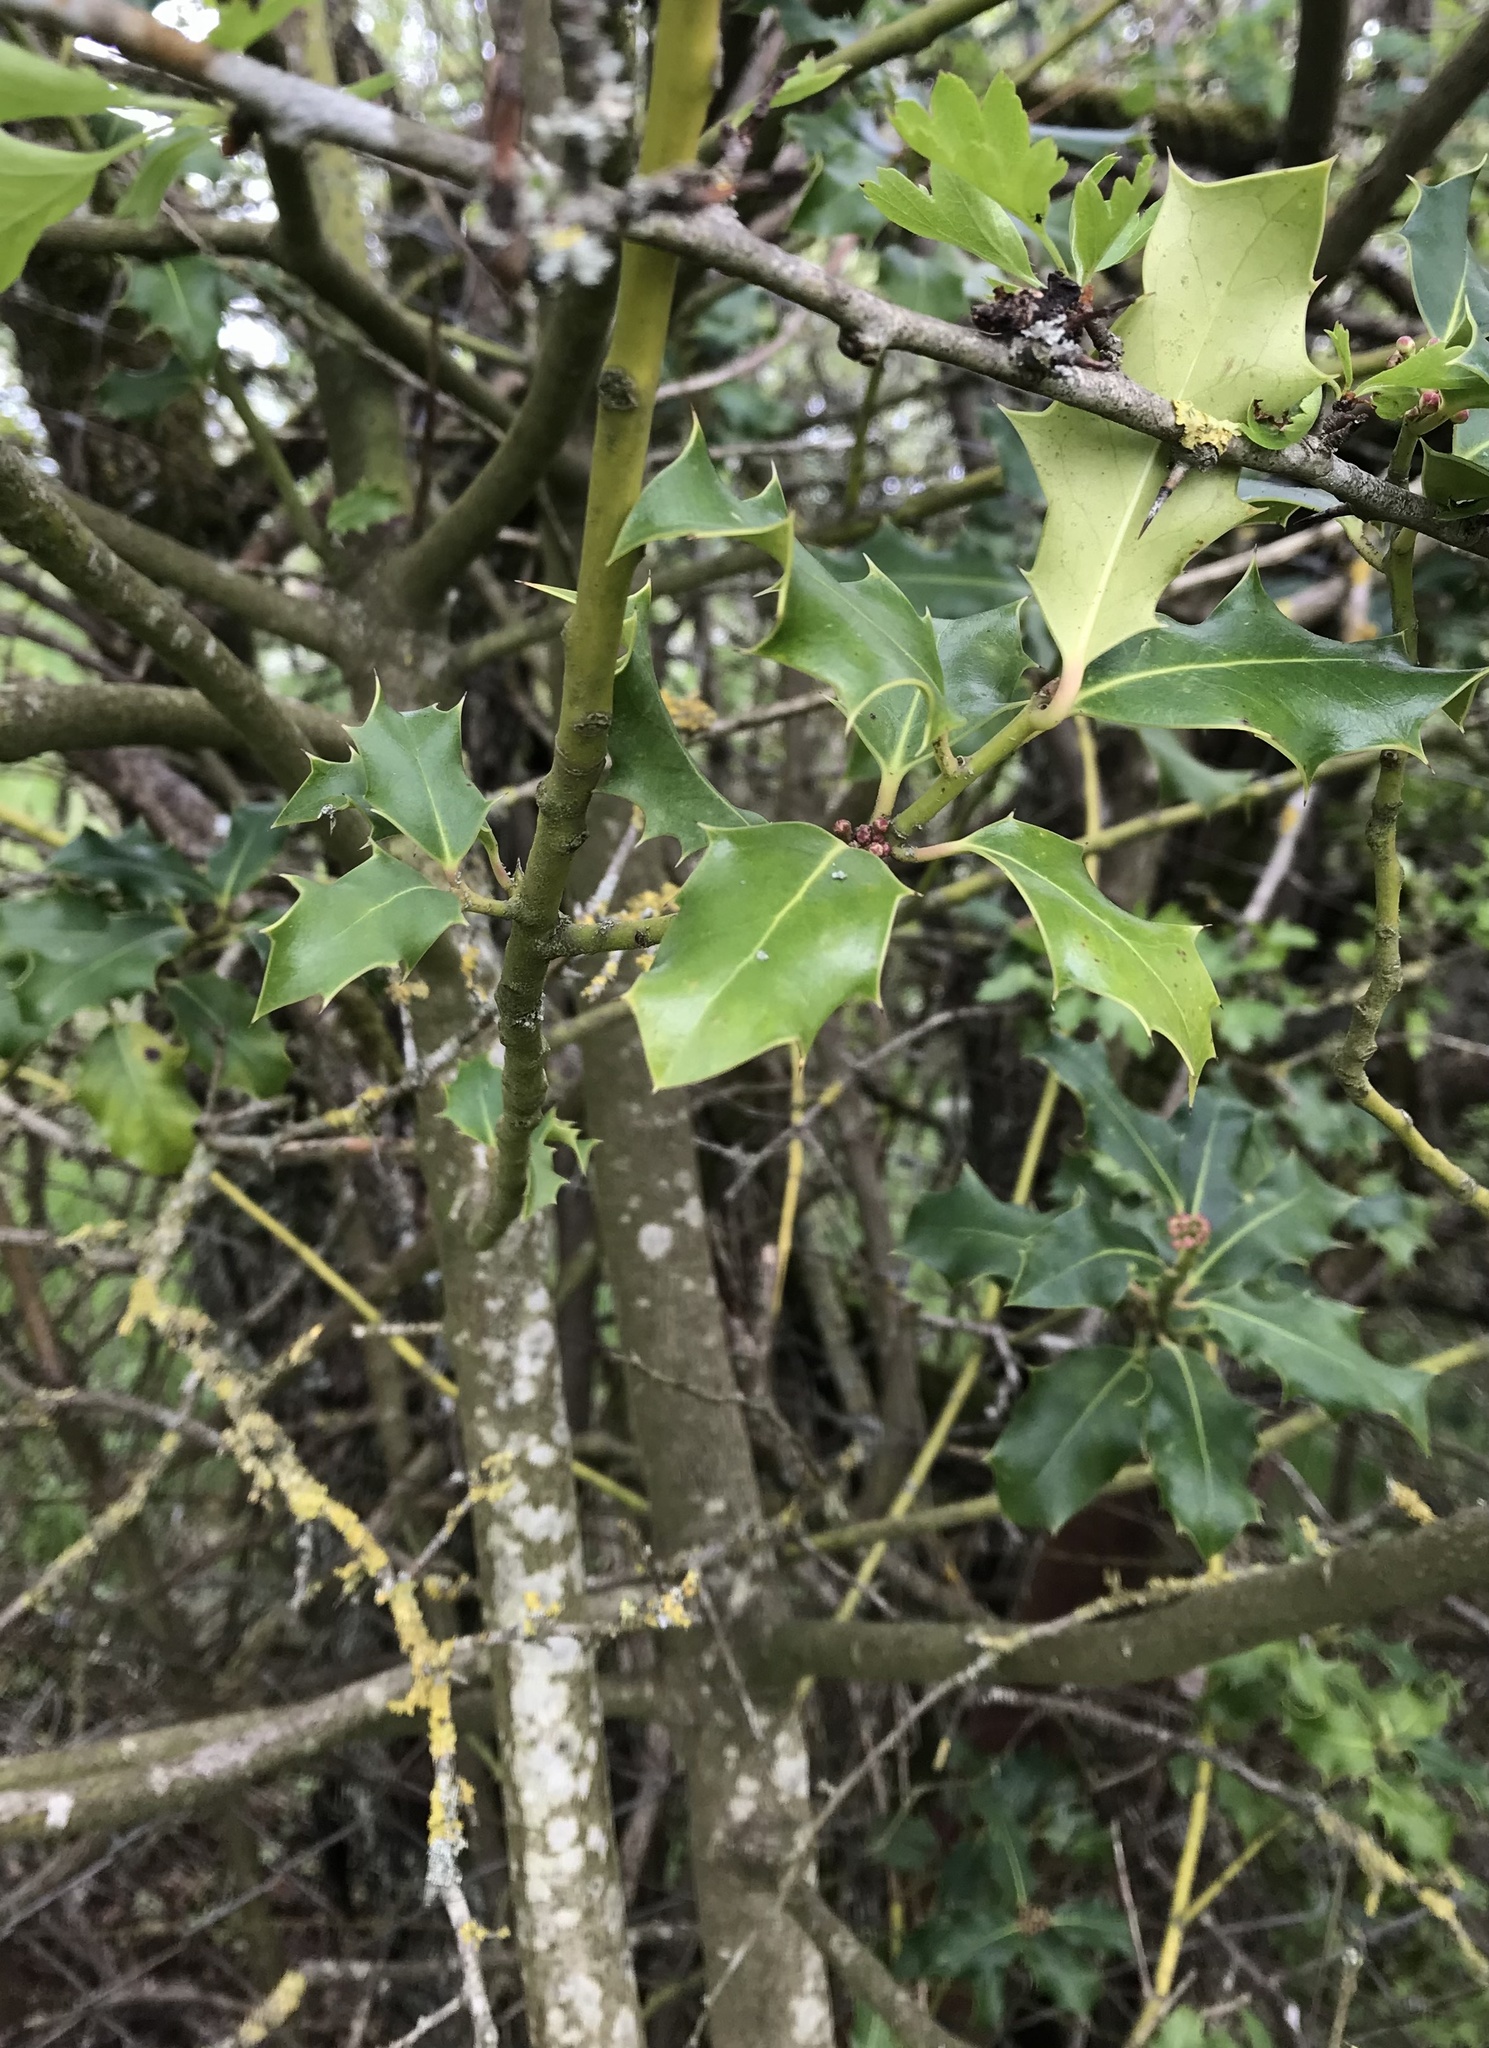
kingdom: Plantae
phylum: Tracheophyta
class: Magnoliopsida
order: Aquifoliales
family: Aquifoliaceae
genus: Ilex
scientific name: Ilex aquifolium
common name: English holly
